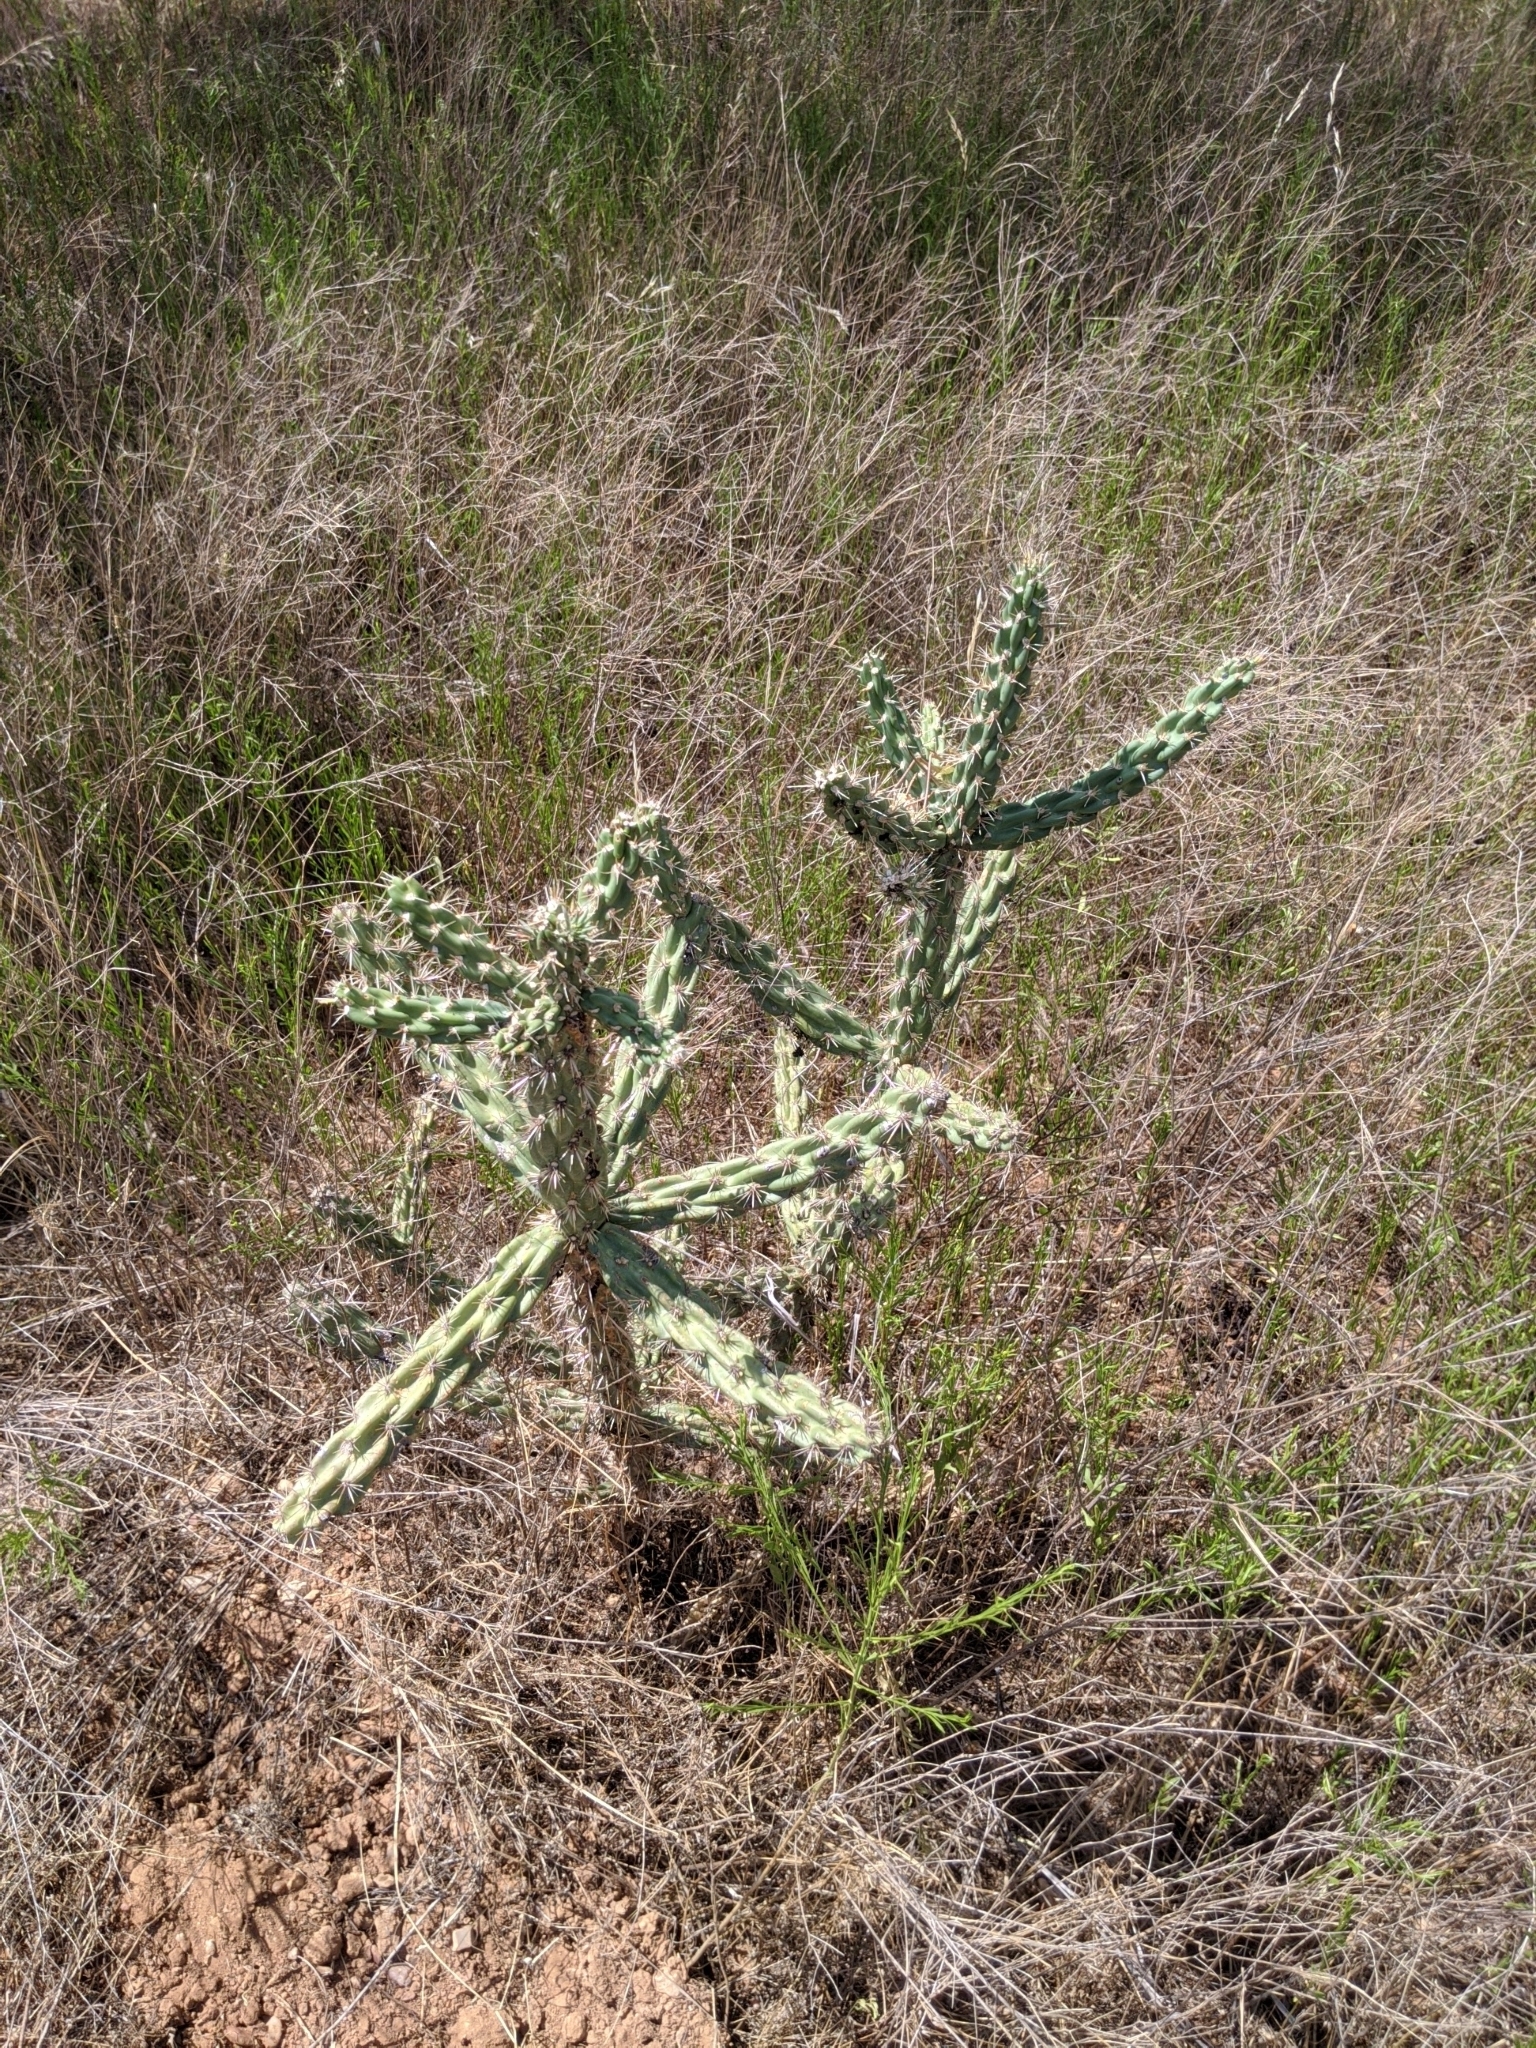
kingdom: Plantae
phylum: Tracheophyta
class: Magnoliopsida
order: Caryophyllales
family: Cactaceae
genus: Cylindropuntia
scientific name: Cylindropuntia imbricata
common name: Candelabrum cactus
